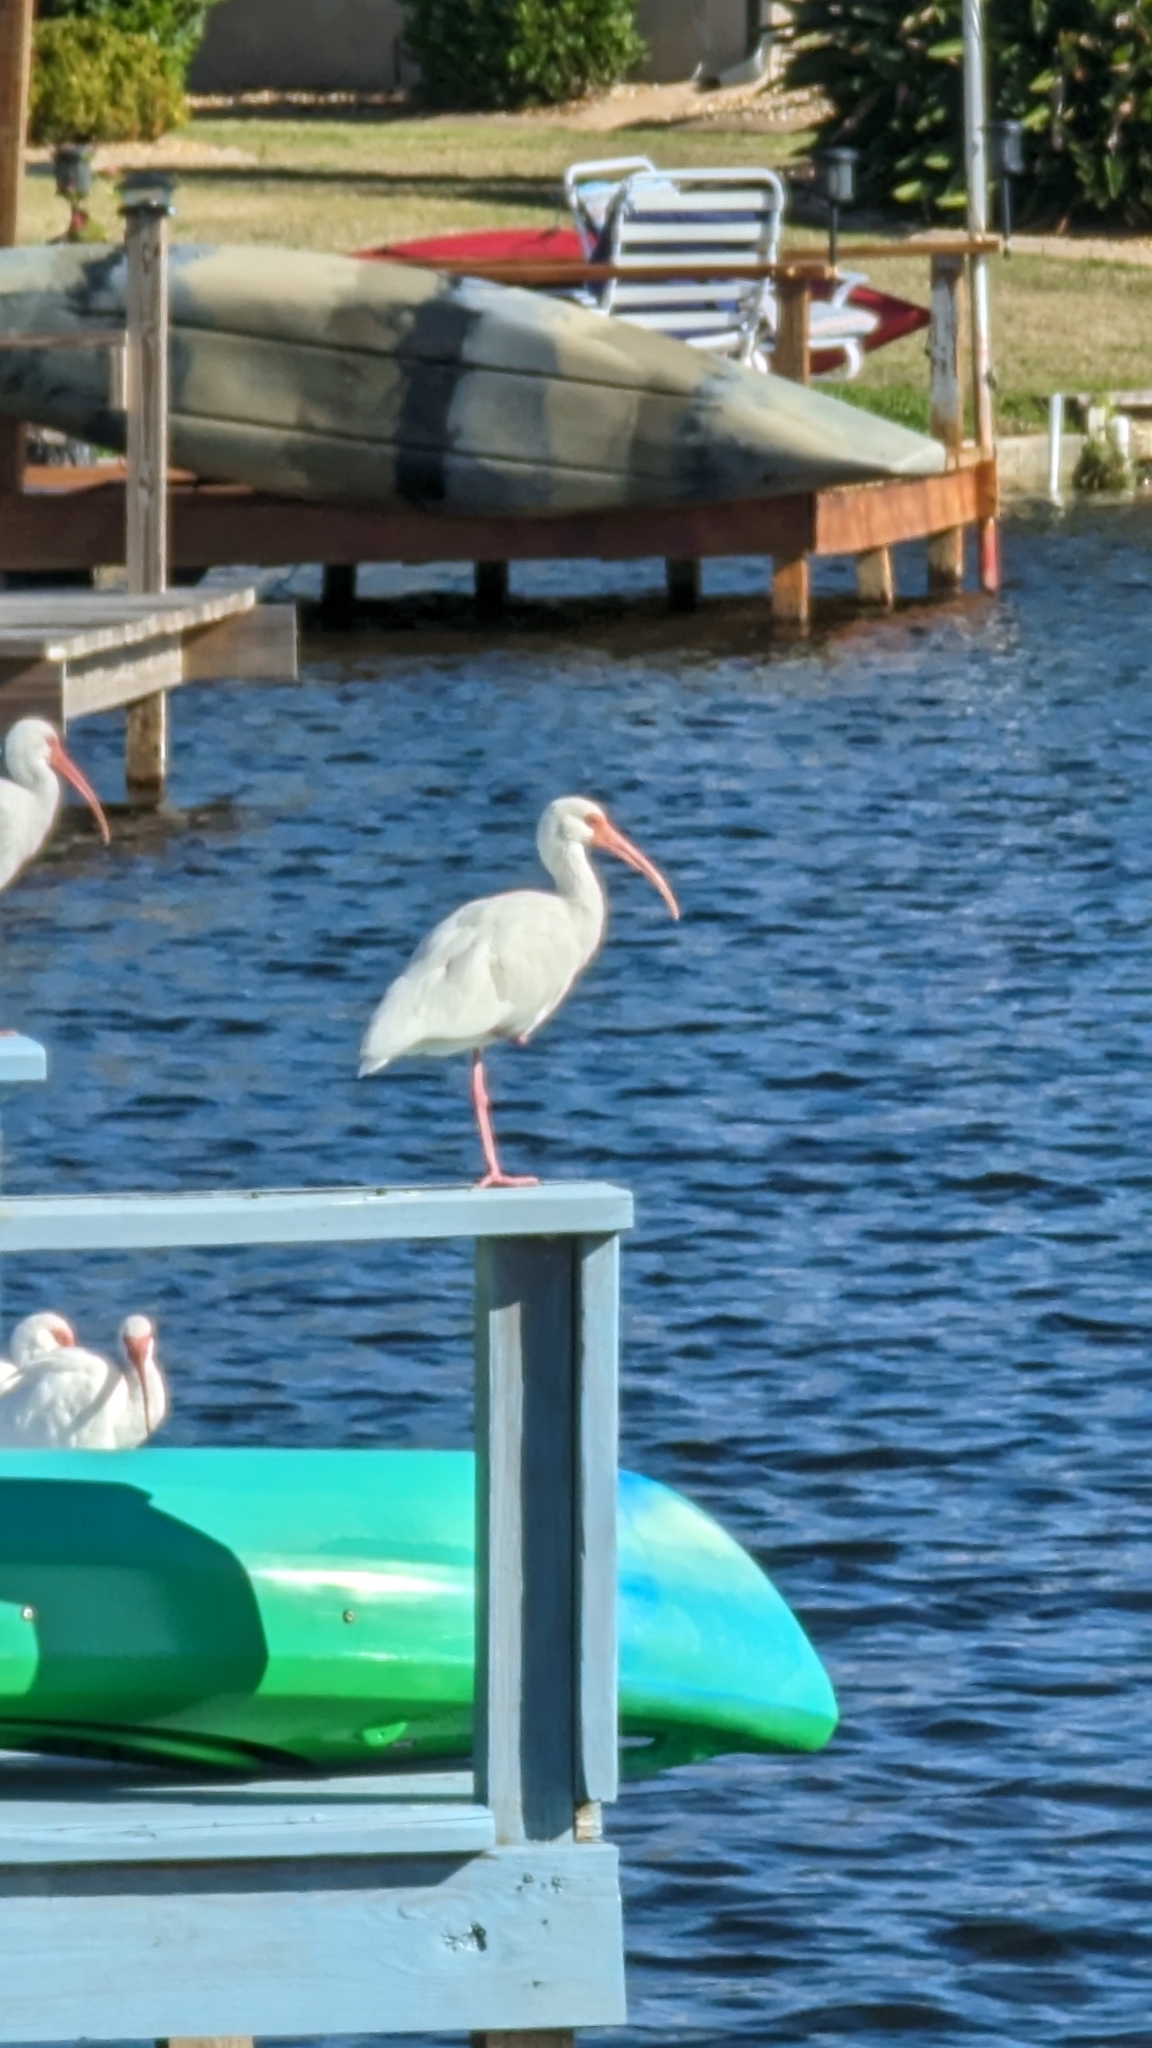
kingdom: Animalia
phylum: Chordata
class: Aves
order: Pelecaniformes
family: Threskiornithidae
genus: Eudocimus
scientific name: Eudocimus albus
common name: White ibis
